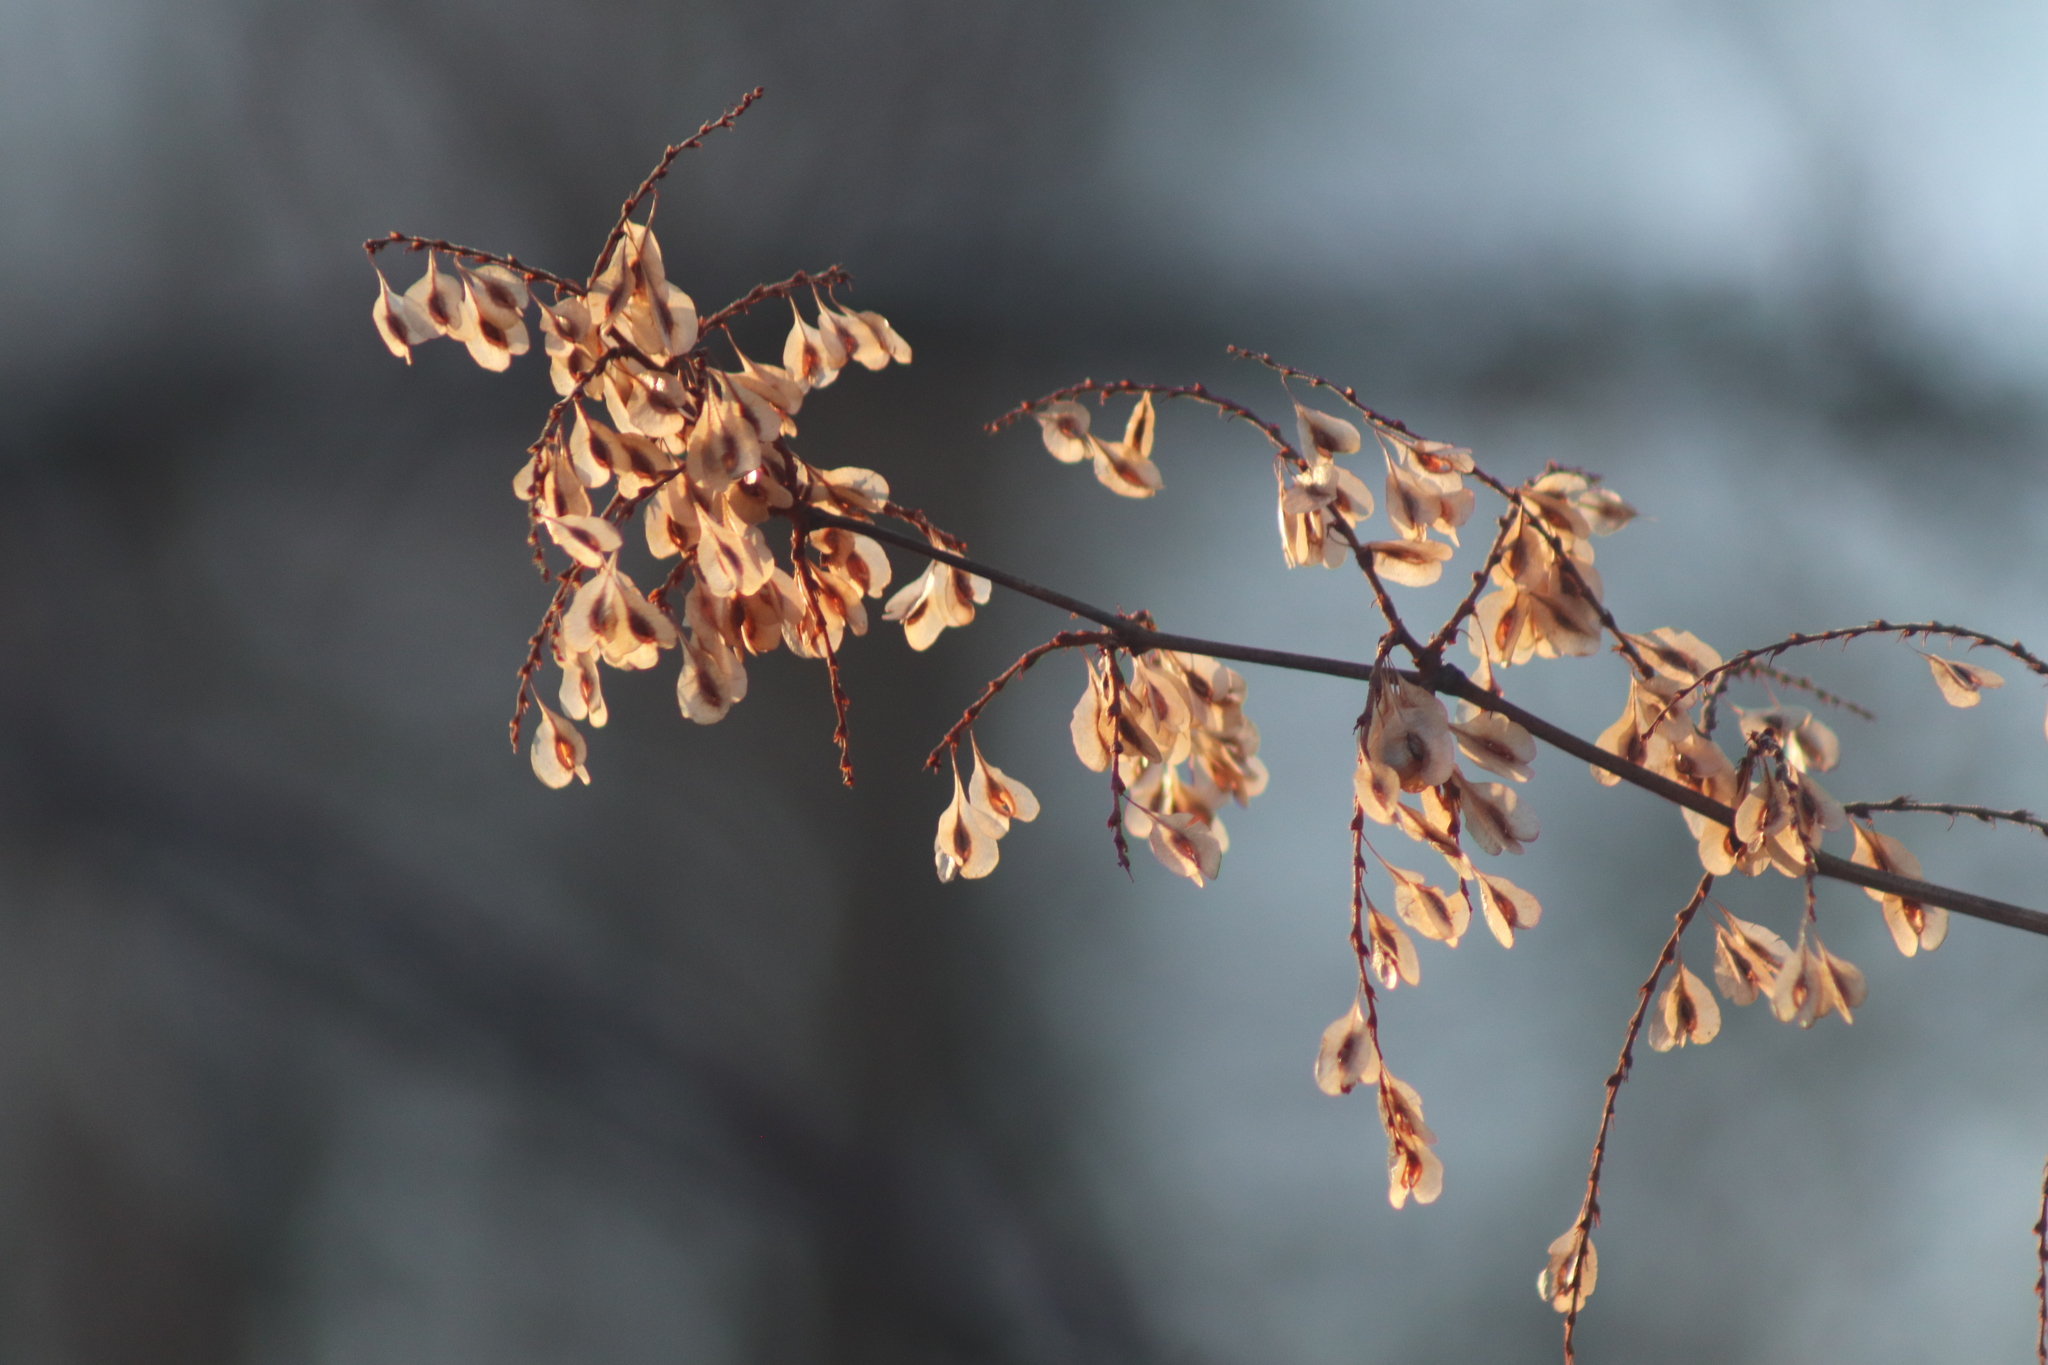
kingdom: Plantae
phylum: Tracheophyta
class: Magnoliopsida
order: Caryophyllales
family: Polygonaceae
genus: Reynoutria
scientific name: Reynoutria japonica
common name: Japanese knotweed
